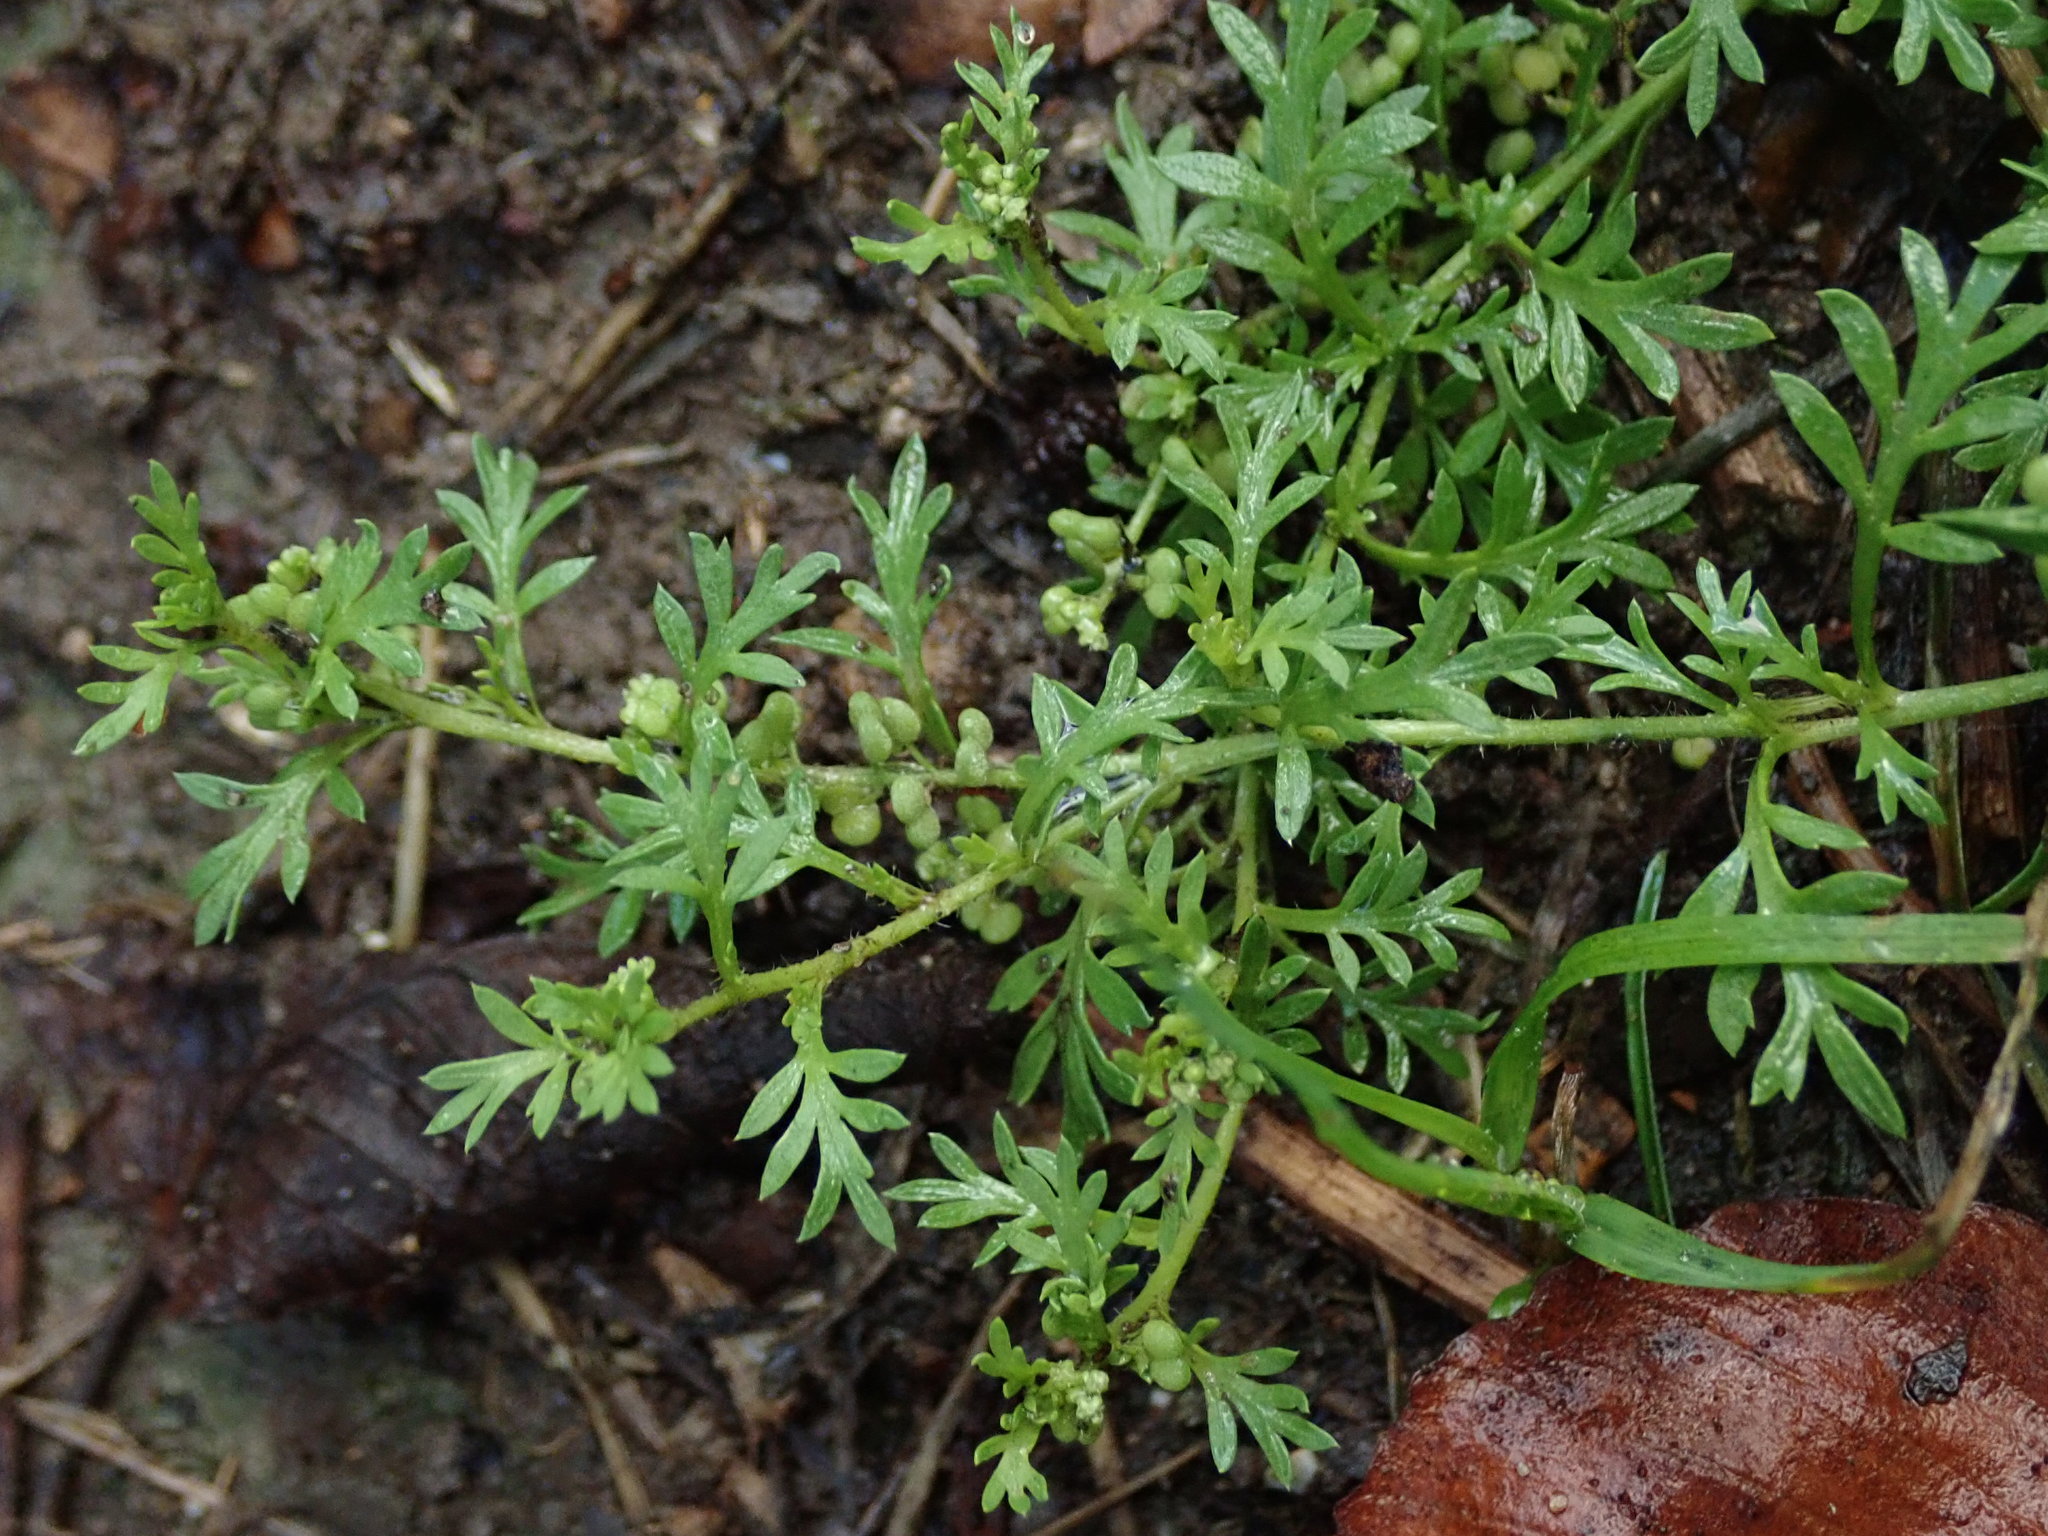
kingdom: Plantae
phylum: Tracheophyta
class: Magnoliopsida
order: Brassicales
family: Brassicaceae
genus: Lepidium
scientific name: Lepidium didymum
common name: Lesser swinecress
